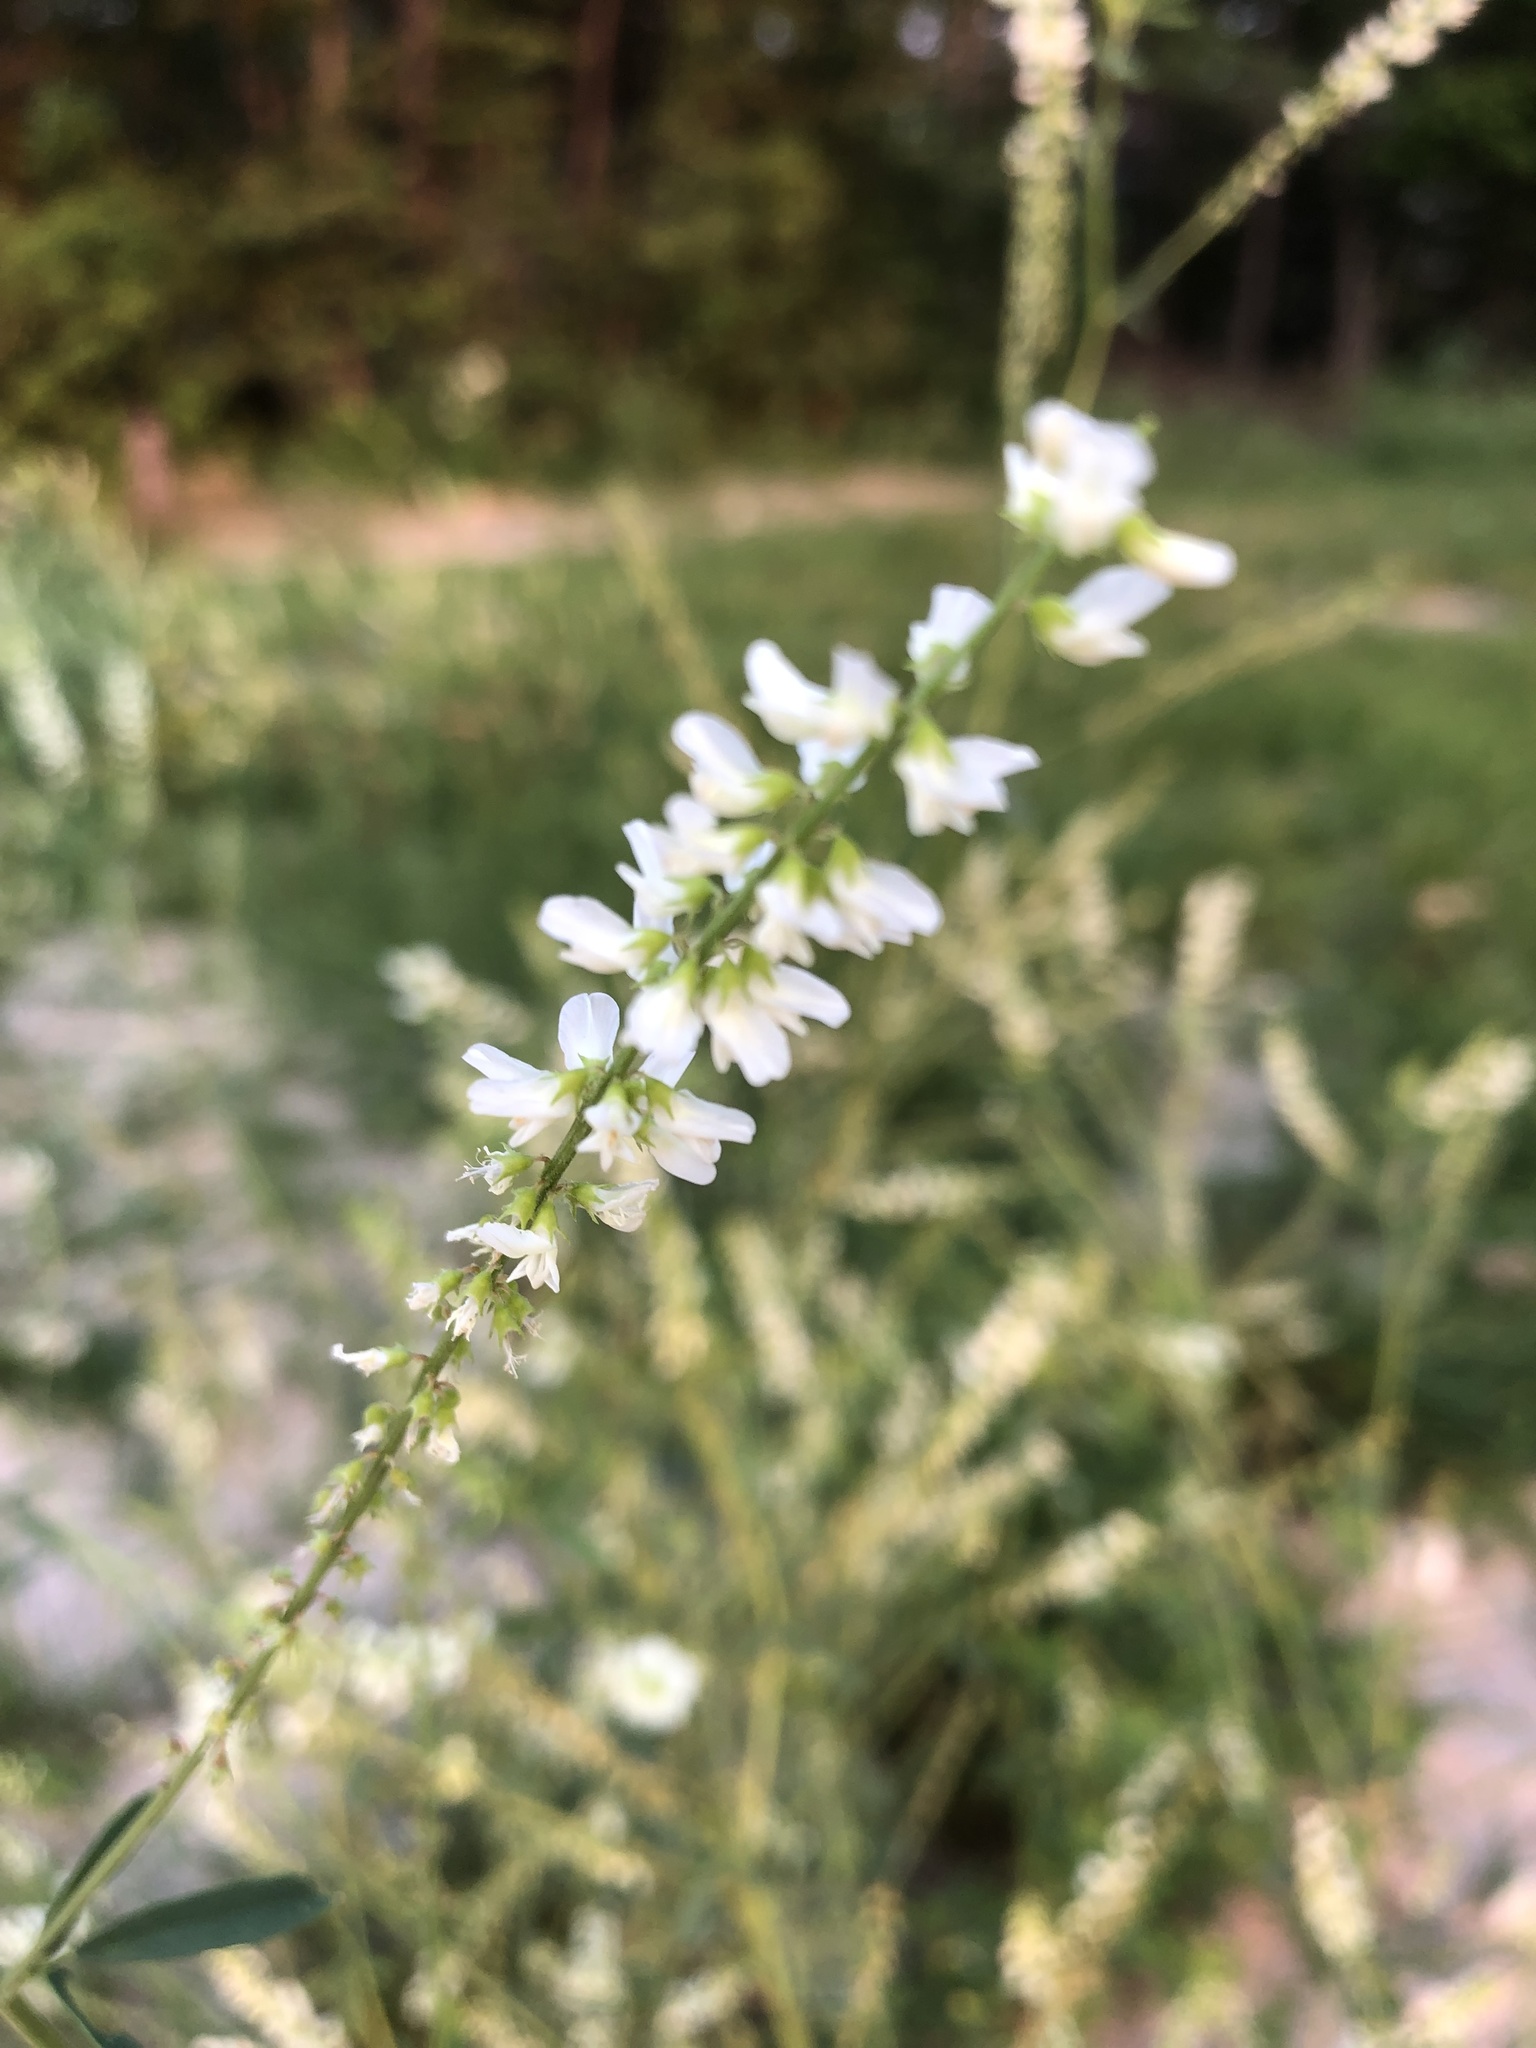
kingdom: Plantae
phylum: Tracheophyta
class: Magnoliopsida
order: Fabales
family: Fabaceae
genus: Melilotus
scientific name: Melilotus albus
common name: White melilot
